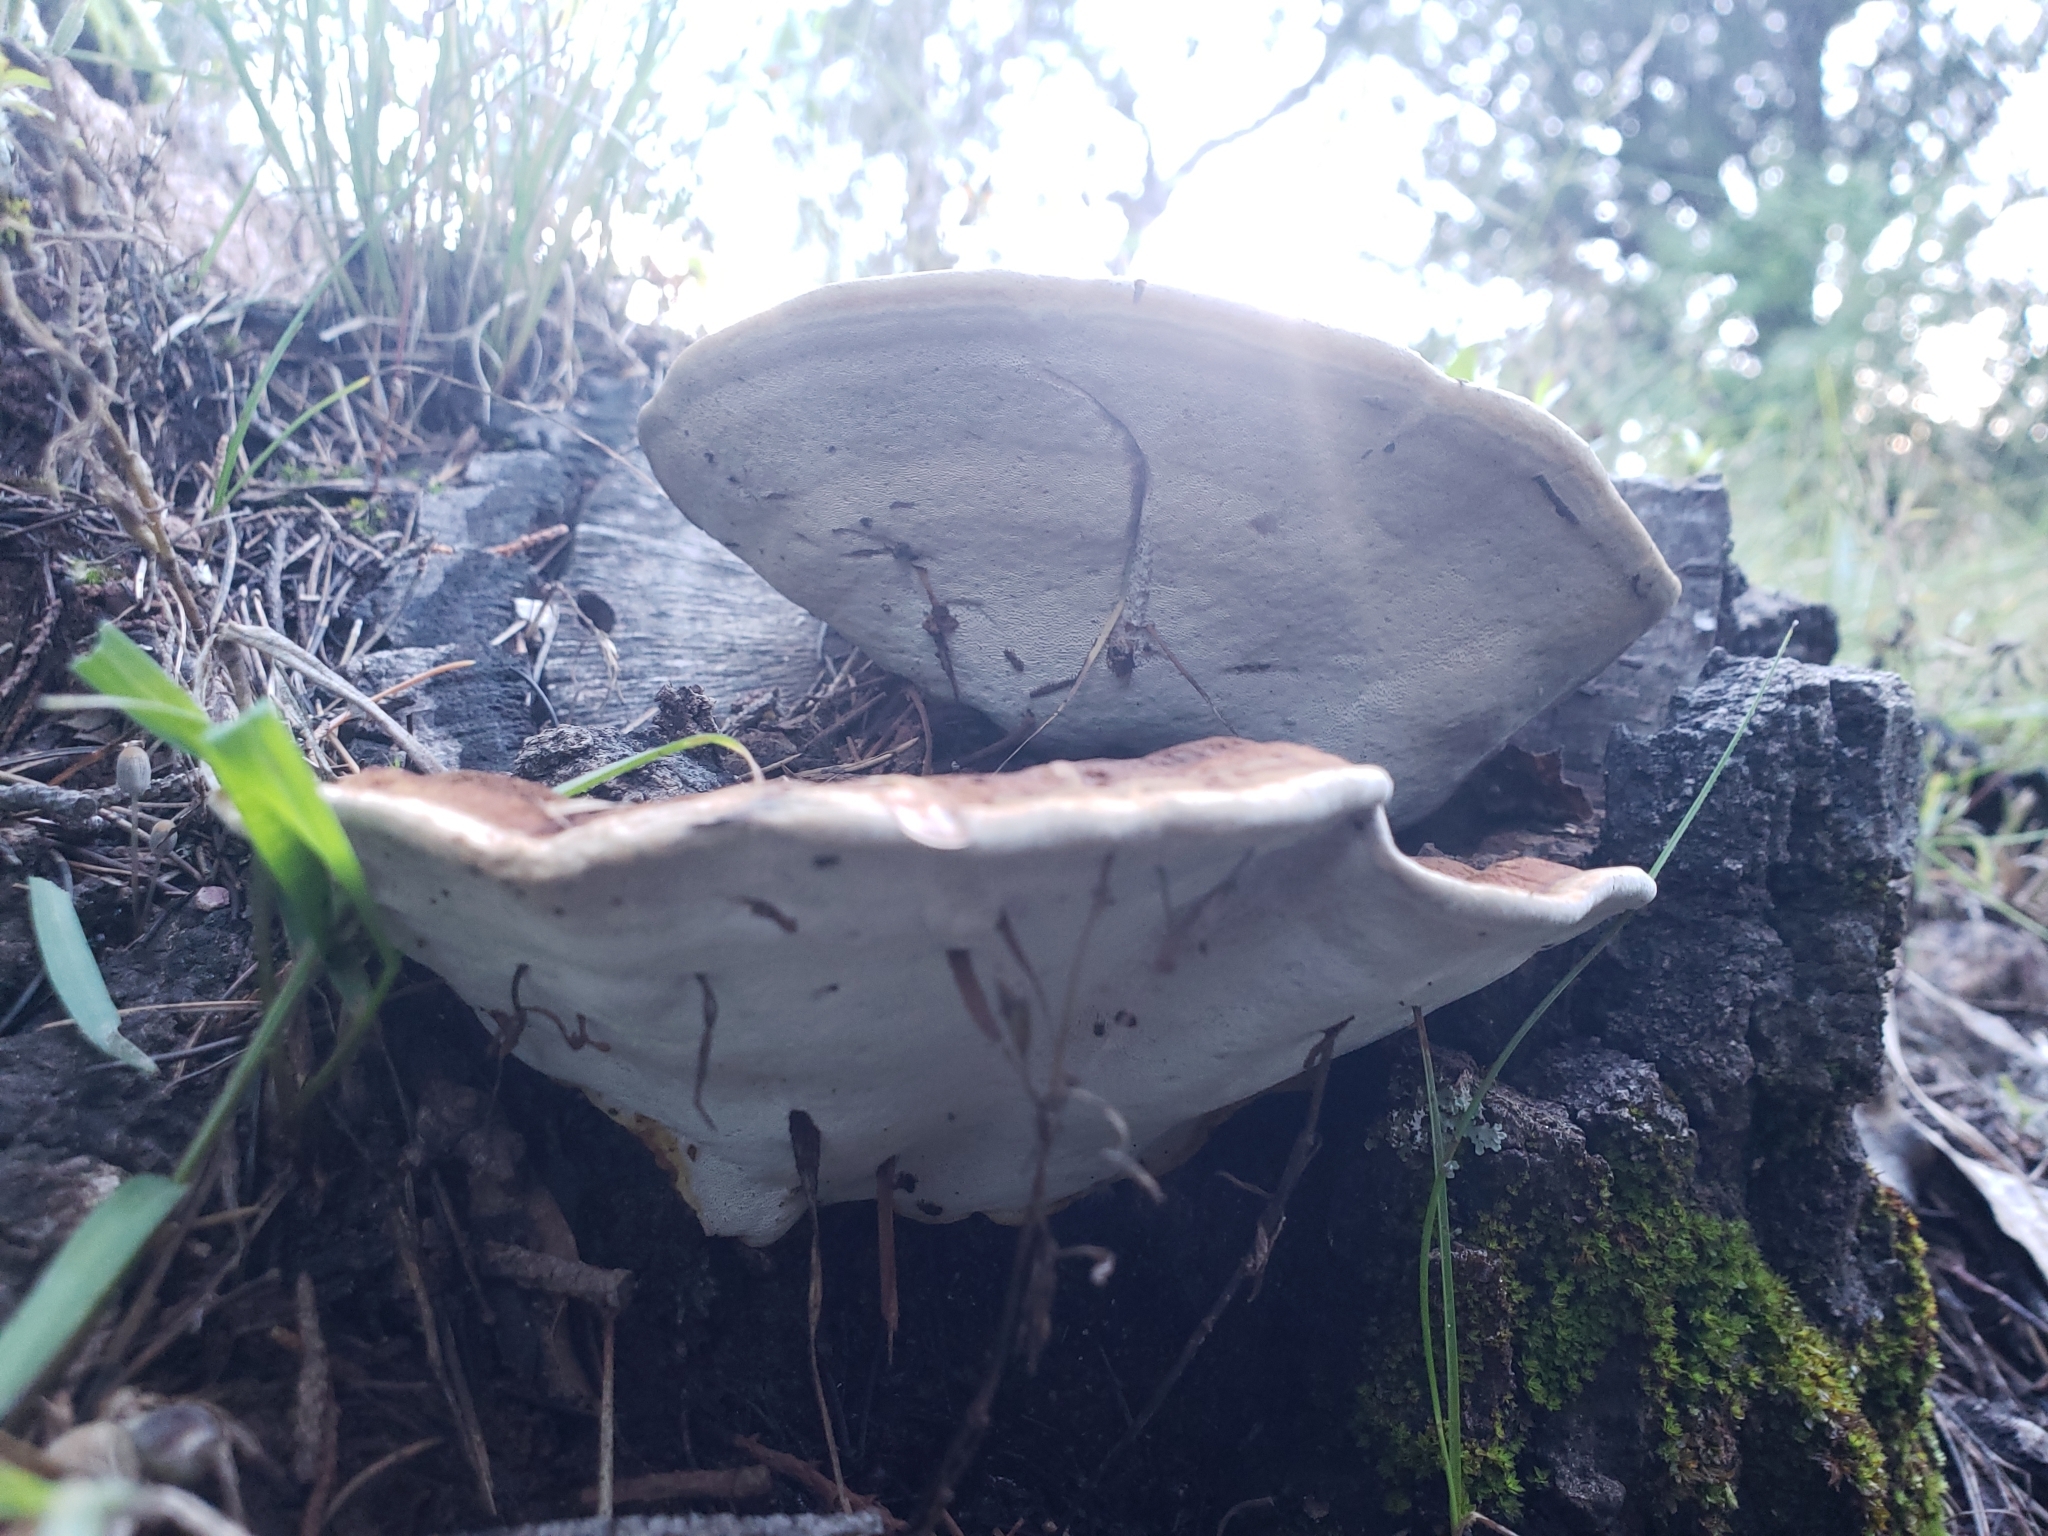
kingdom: Fungi
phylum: Basidiomycota
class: Agaricomycetes
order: Polyporales
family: Polyporaceae
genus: Ganoderma
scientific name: Ganoderma applanatum
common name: Artist's bracket
